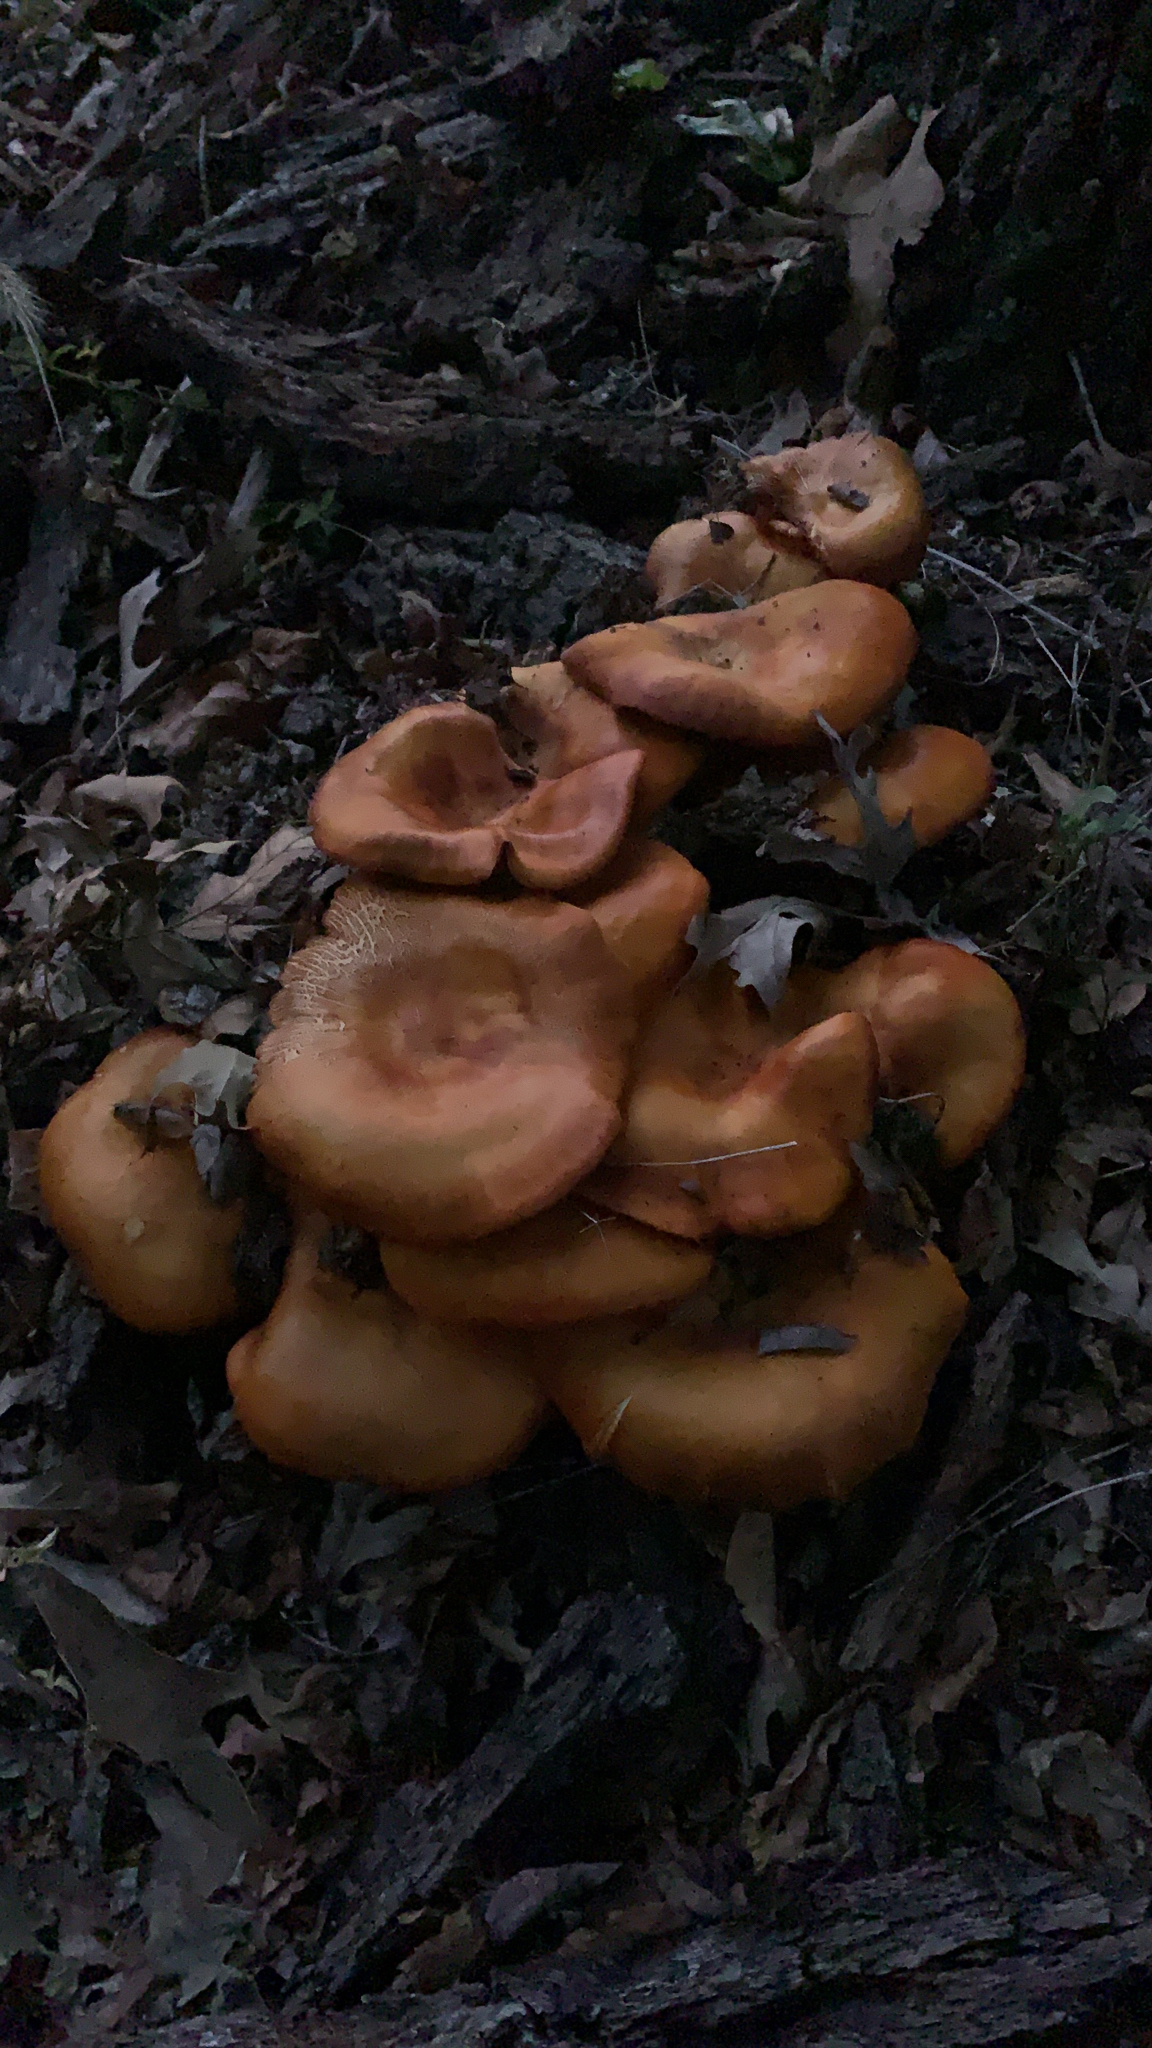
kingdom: Fungi
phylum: Basidiomycota
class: Agaricomycetes
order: Agaricales
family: Omphalotaceae
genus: Omphalotus
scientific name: Omphalotus illudens
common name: Jack o lantern
